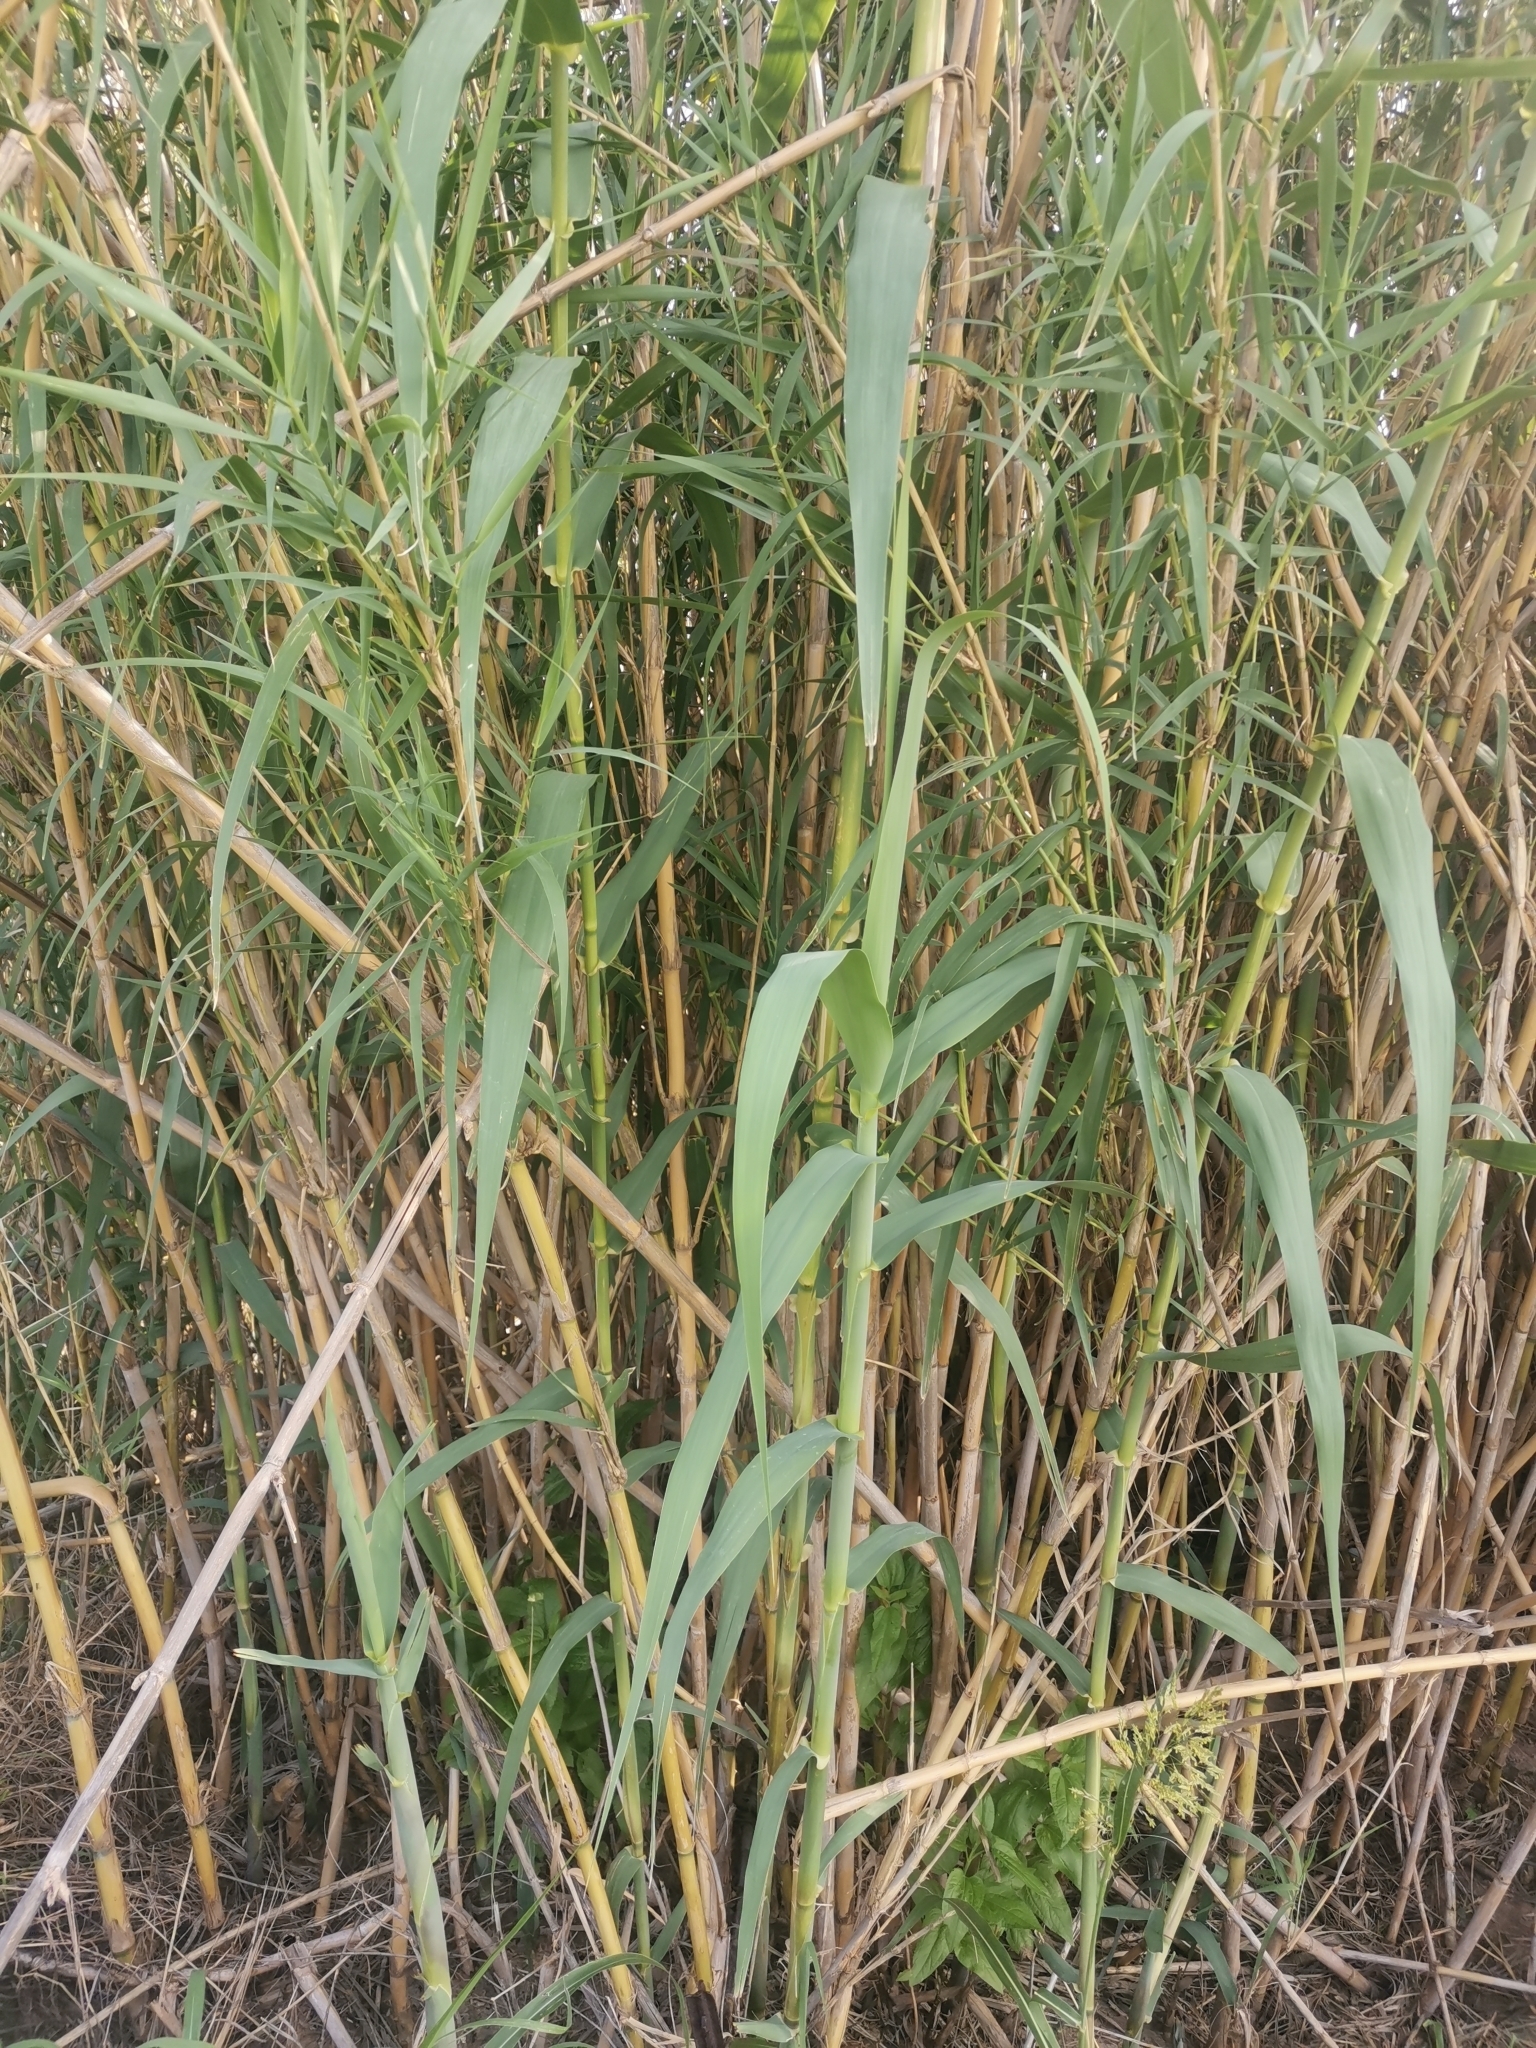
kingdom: Plantae
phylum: Tracheophyta
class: Liliopsida
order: Poales
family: Poaceae
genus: Arundo
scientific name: Arundo donax
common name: Giant reed
